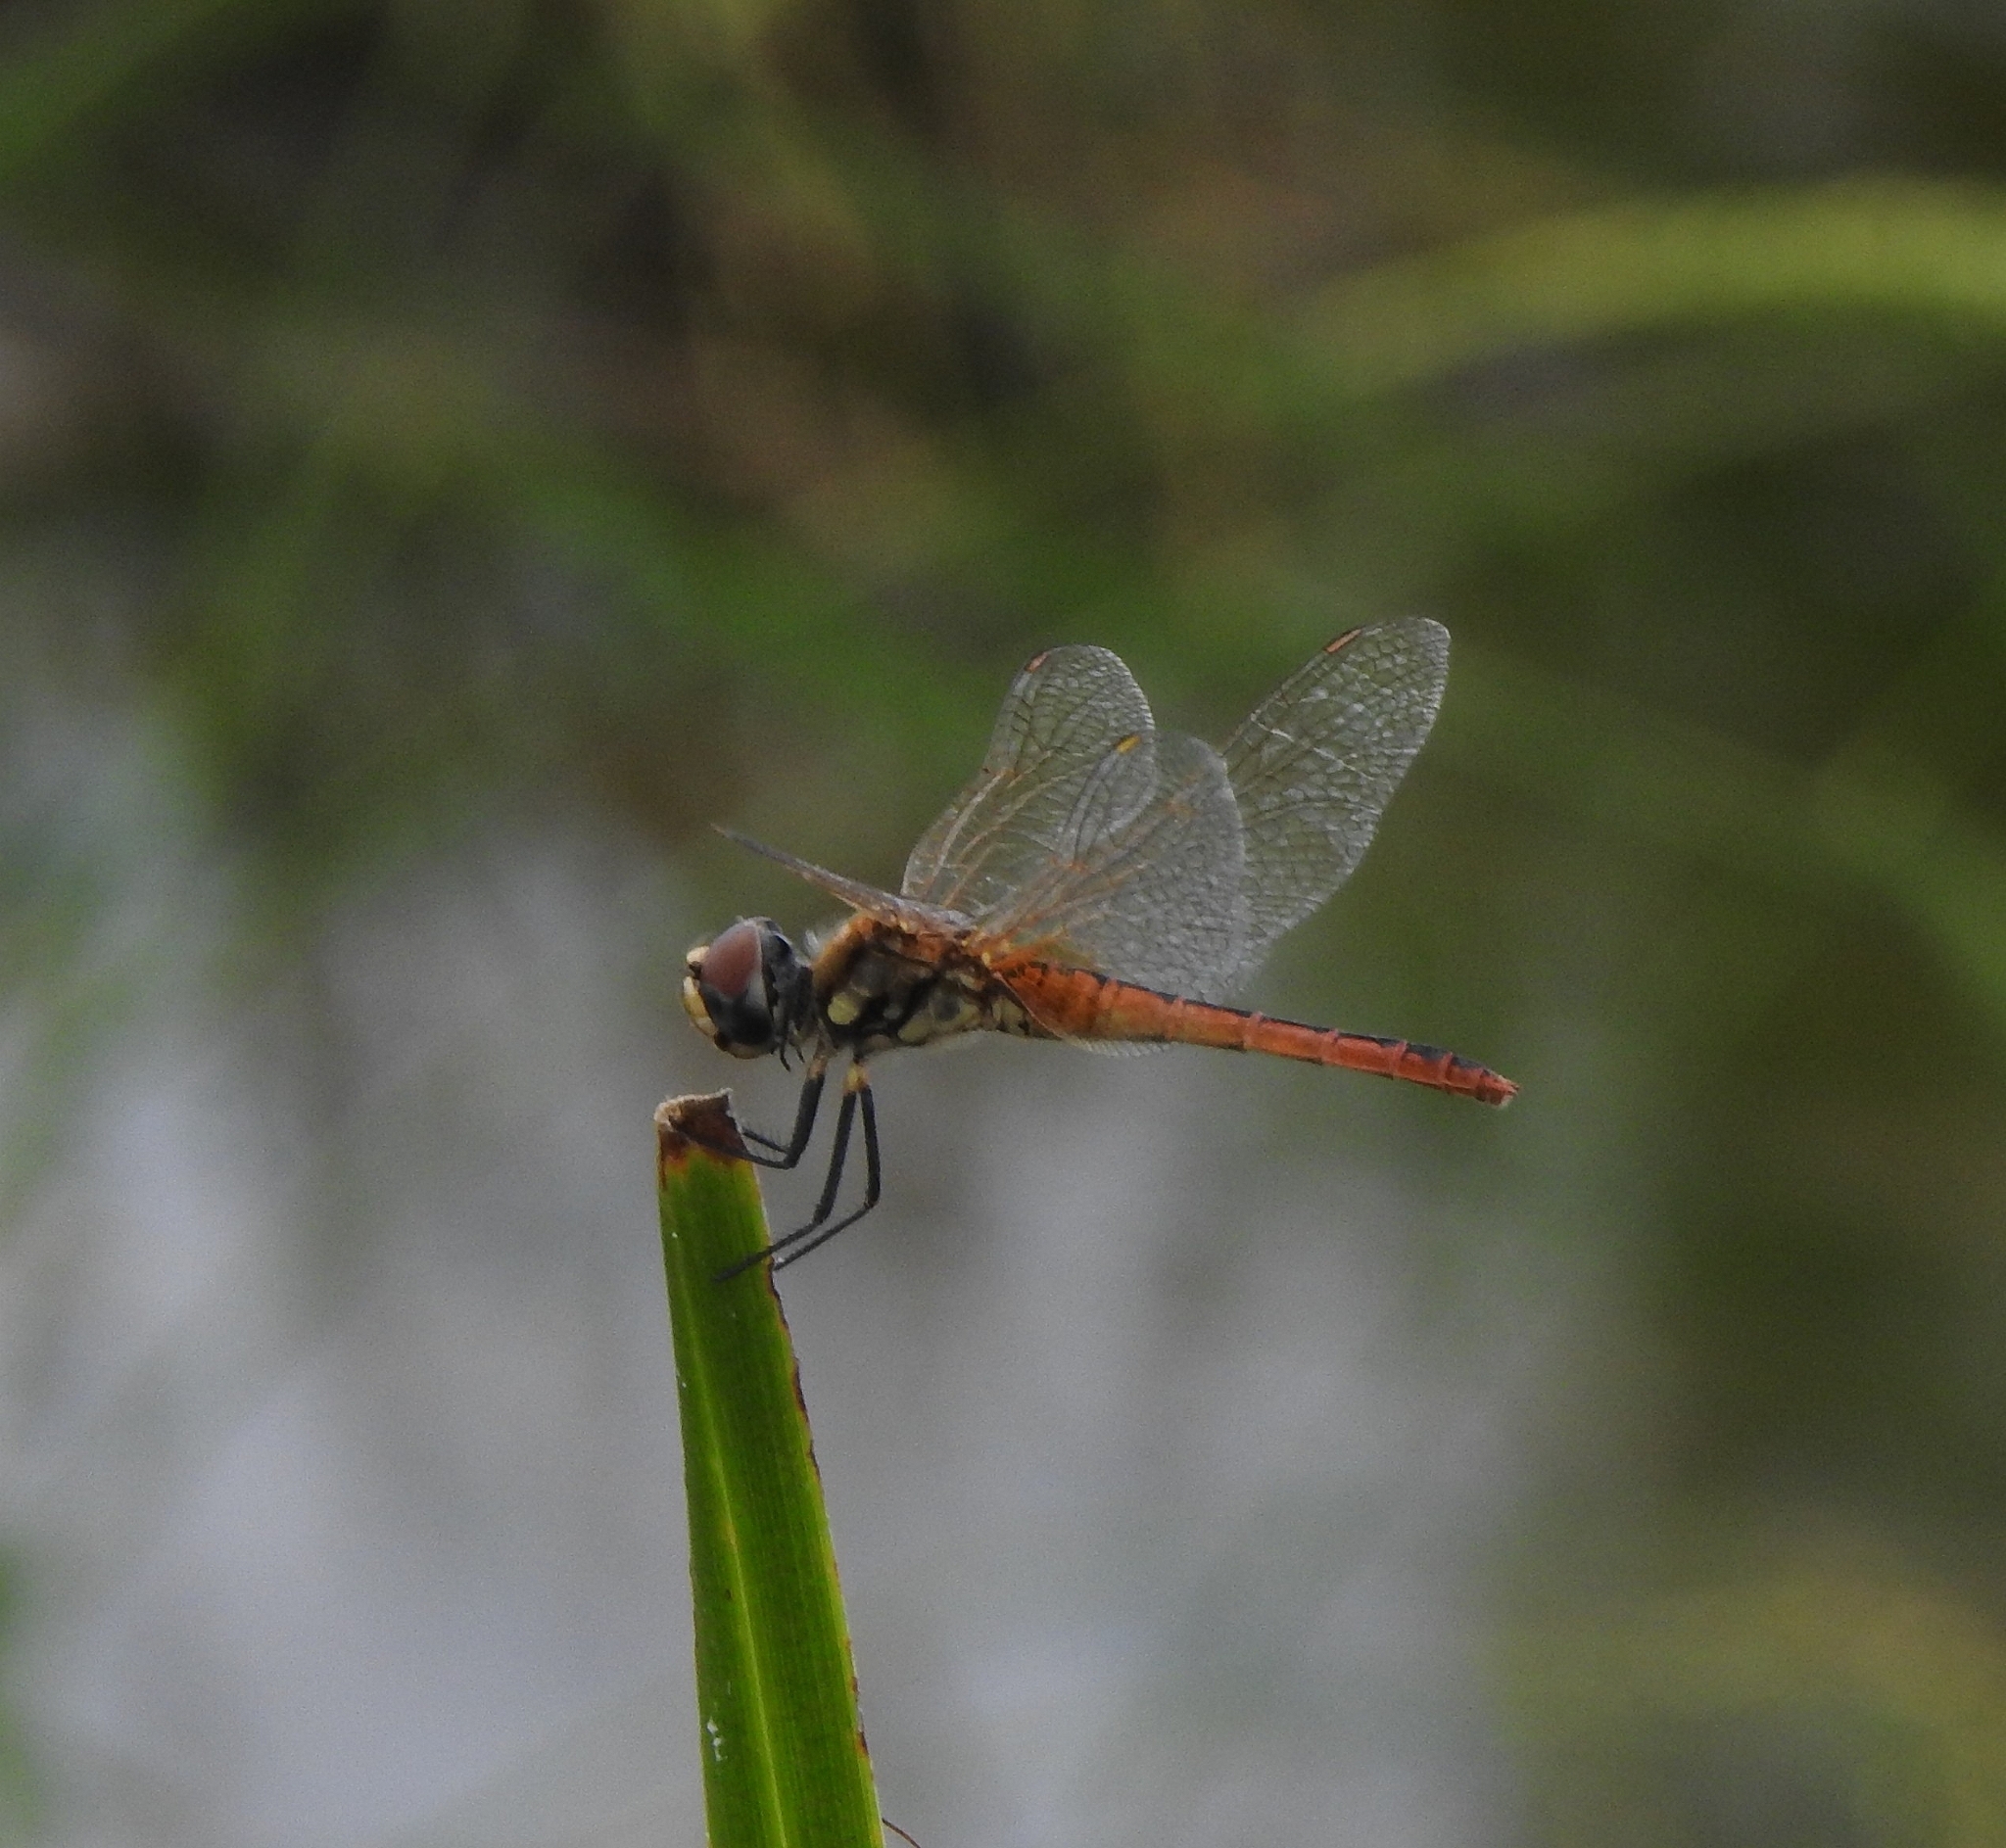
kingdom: Animalia
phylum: Arthropoda
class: Insecta
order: Odonata
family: Libellulidae
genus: Macrodiplax
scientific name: Macrodiplax cora
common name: Coastal glider
